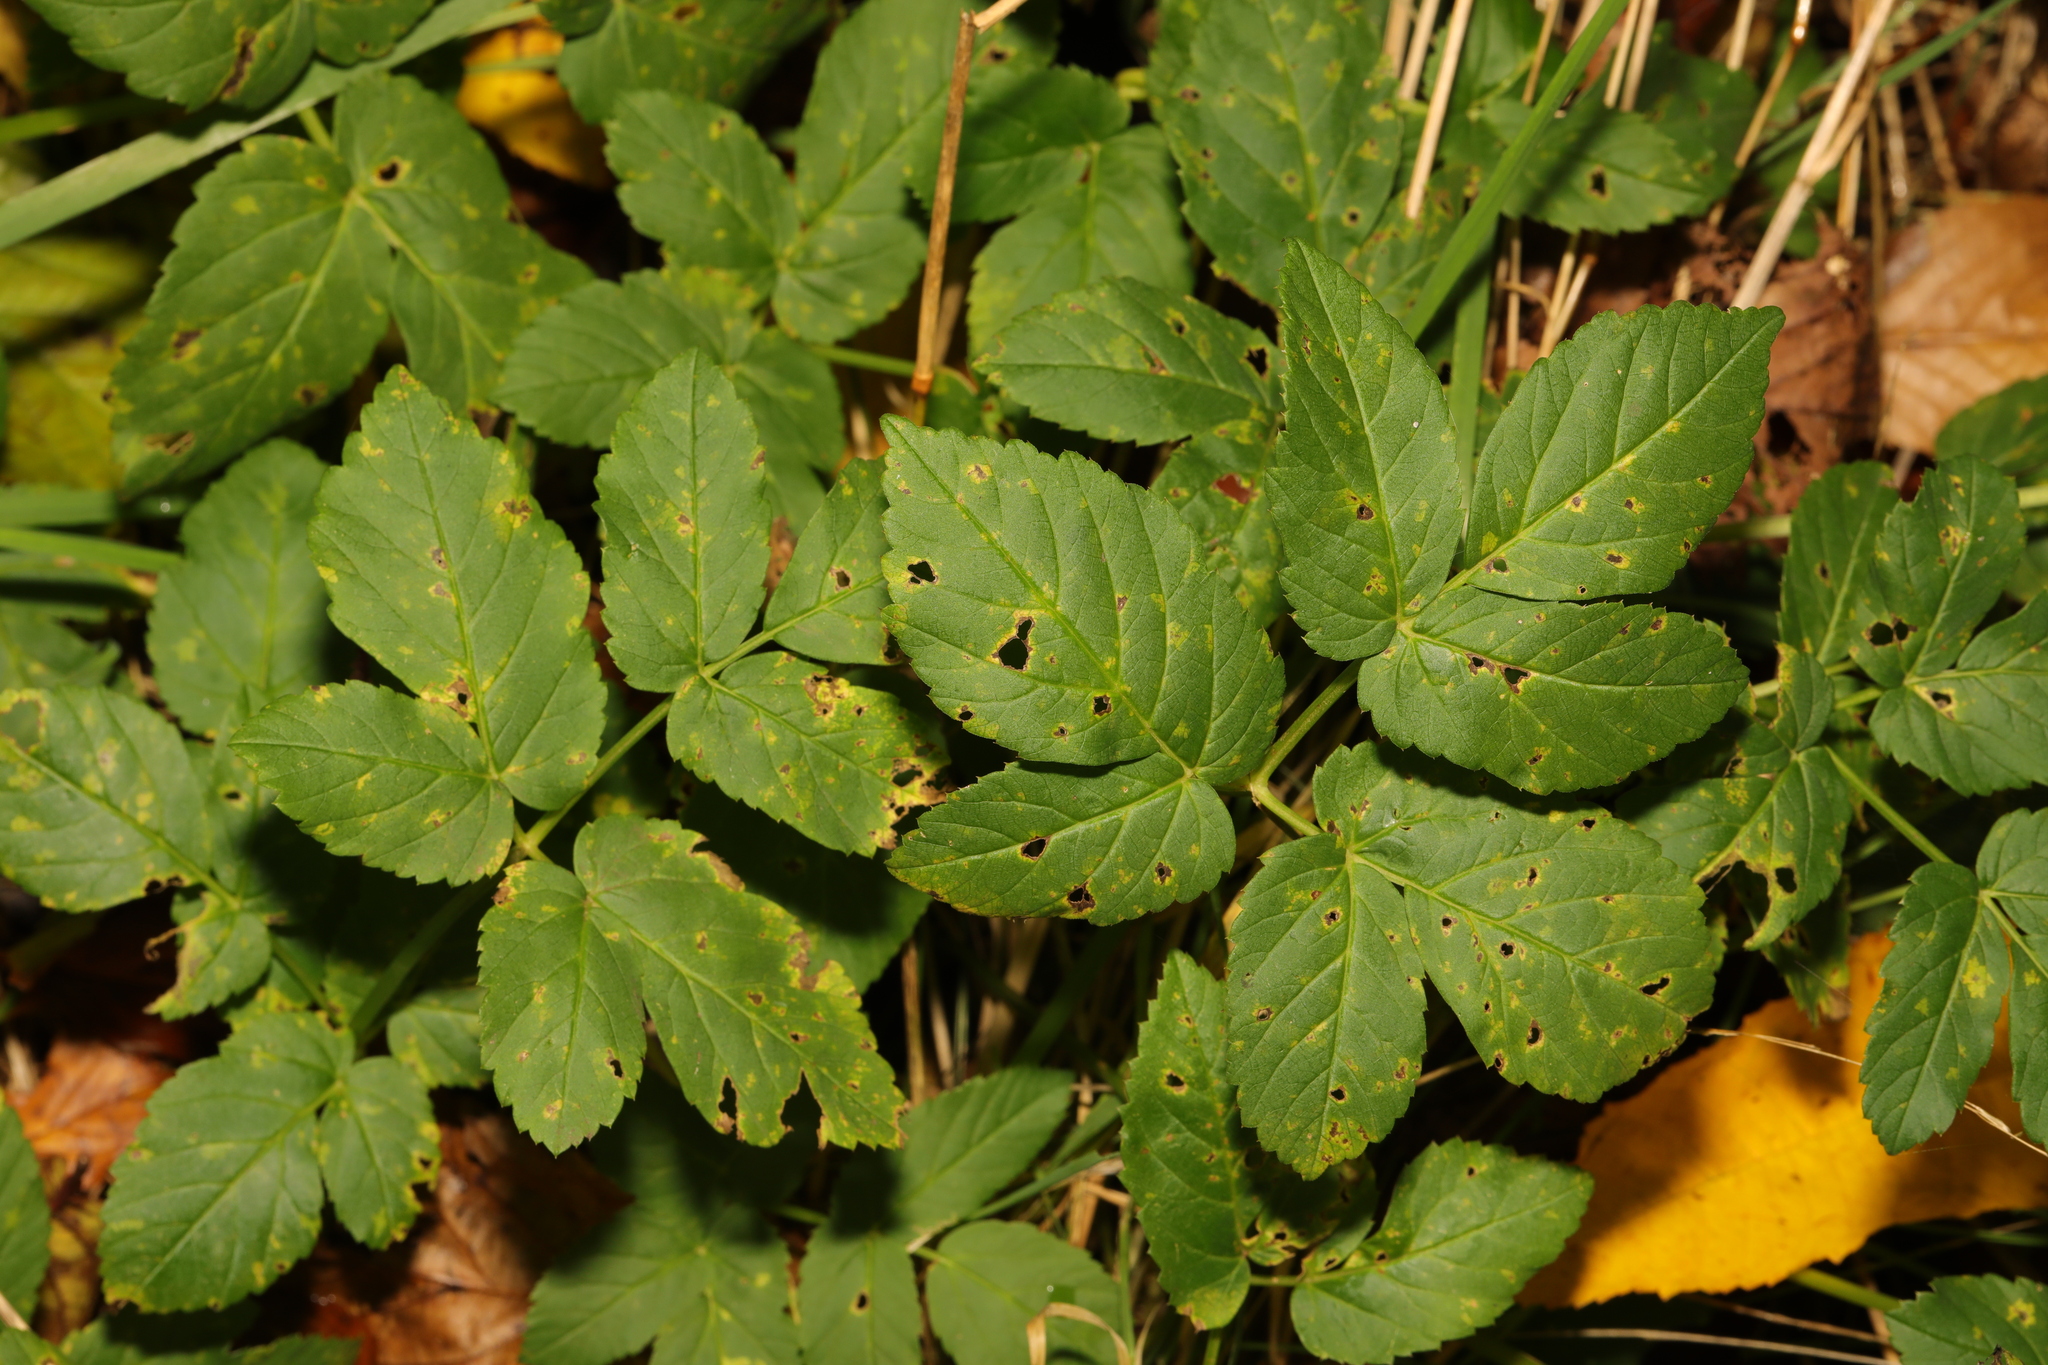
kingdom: Plantae
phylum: Tracheophyta
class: Magnoliopsida
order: Apiales
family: Apiaceae
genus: Aegopodium
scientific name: Aegopodium podagraria
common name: Ground-elder
